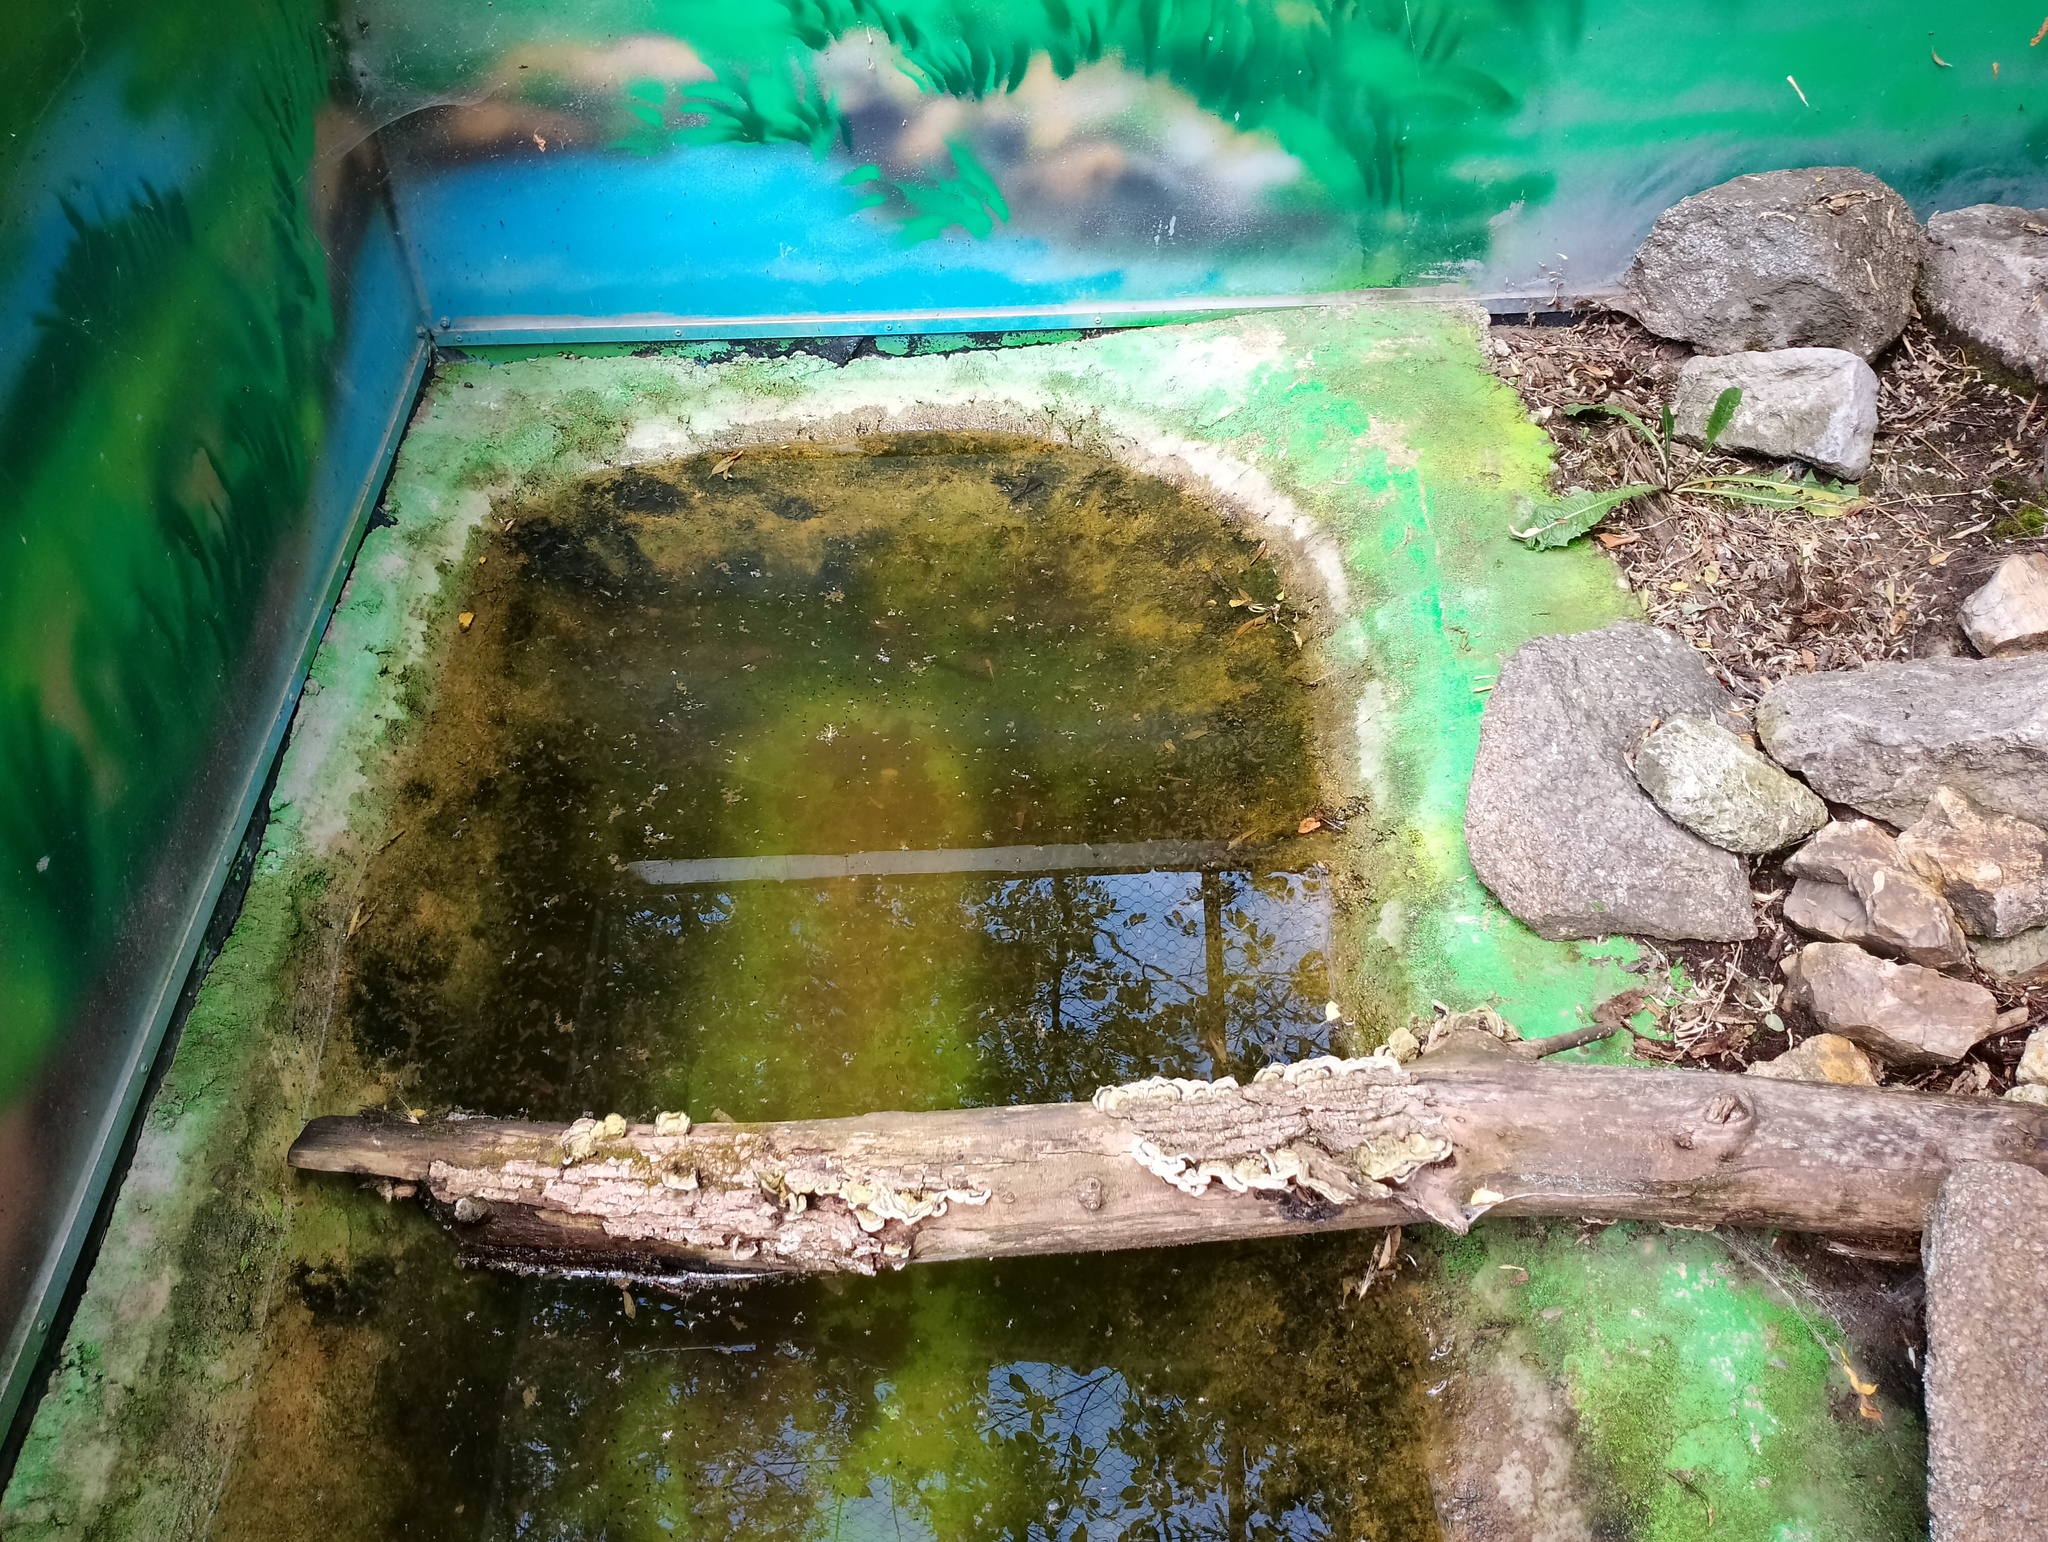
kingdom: Fungi
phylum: Basidiomycota
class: Agaricomycetes
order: Auriculariales
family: Auriculariaceae
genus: Auricularia
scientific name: Auricularia mesenterica
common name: Tripe fungus
